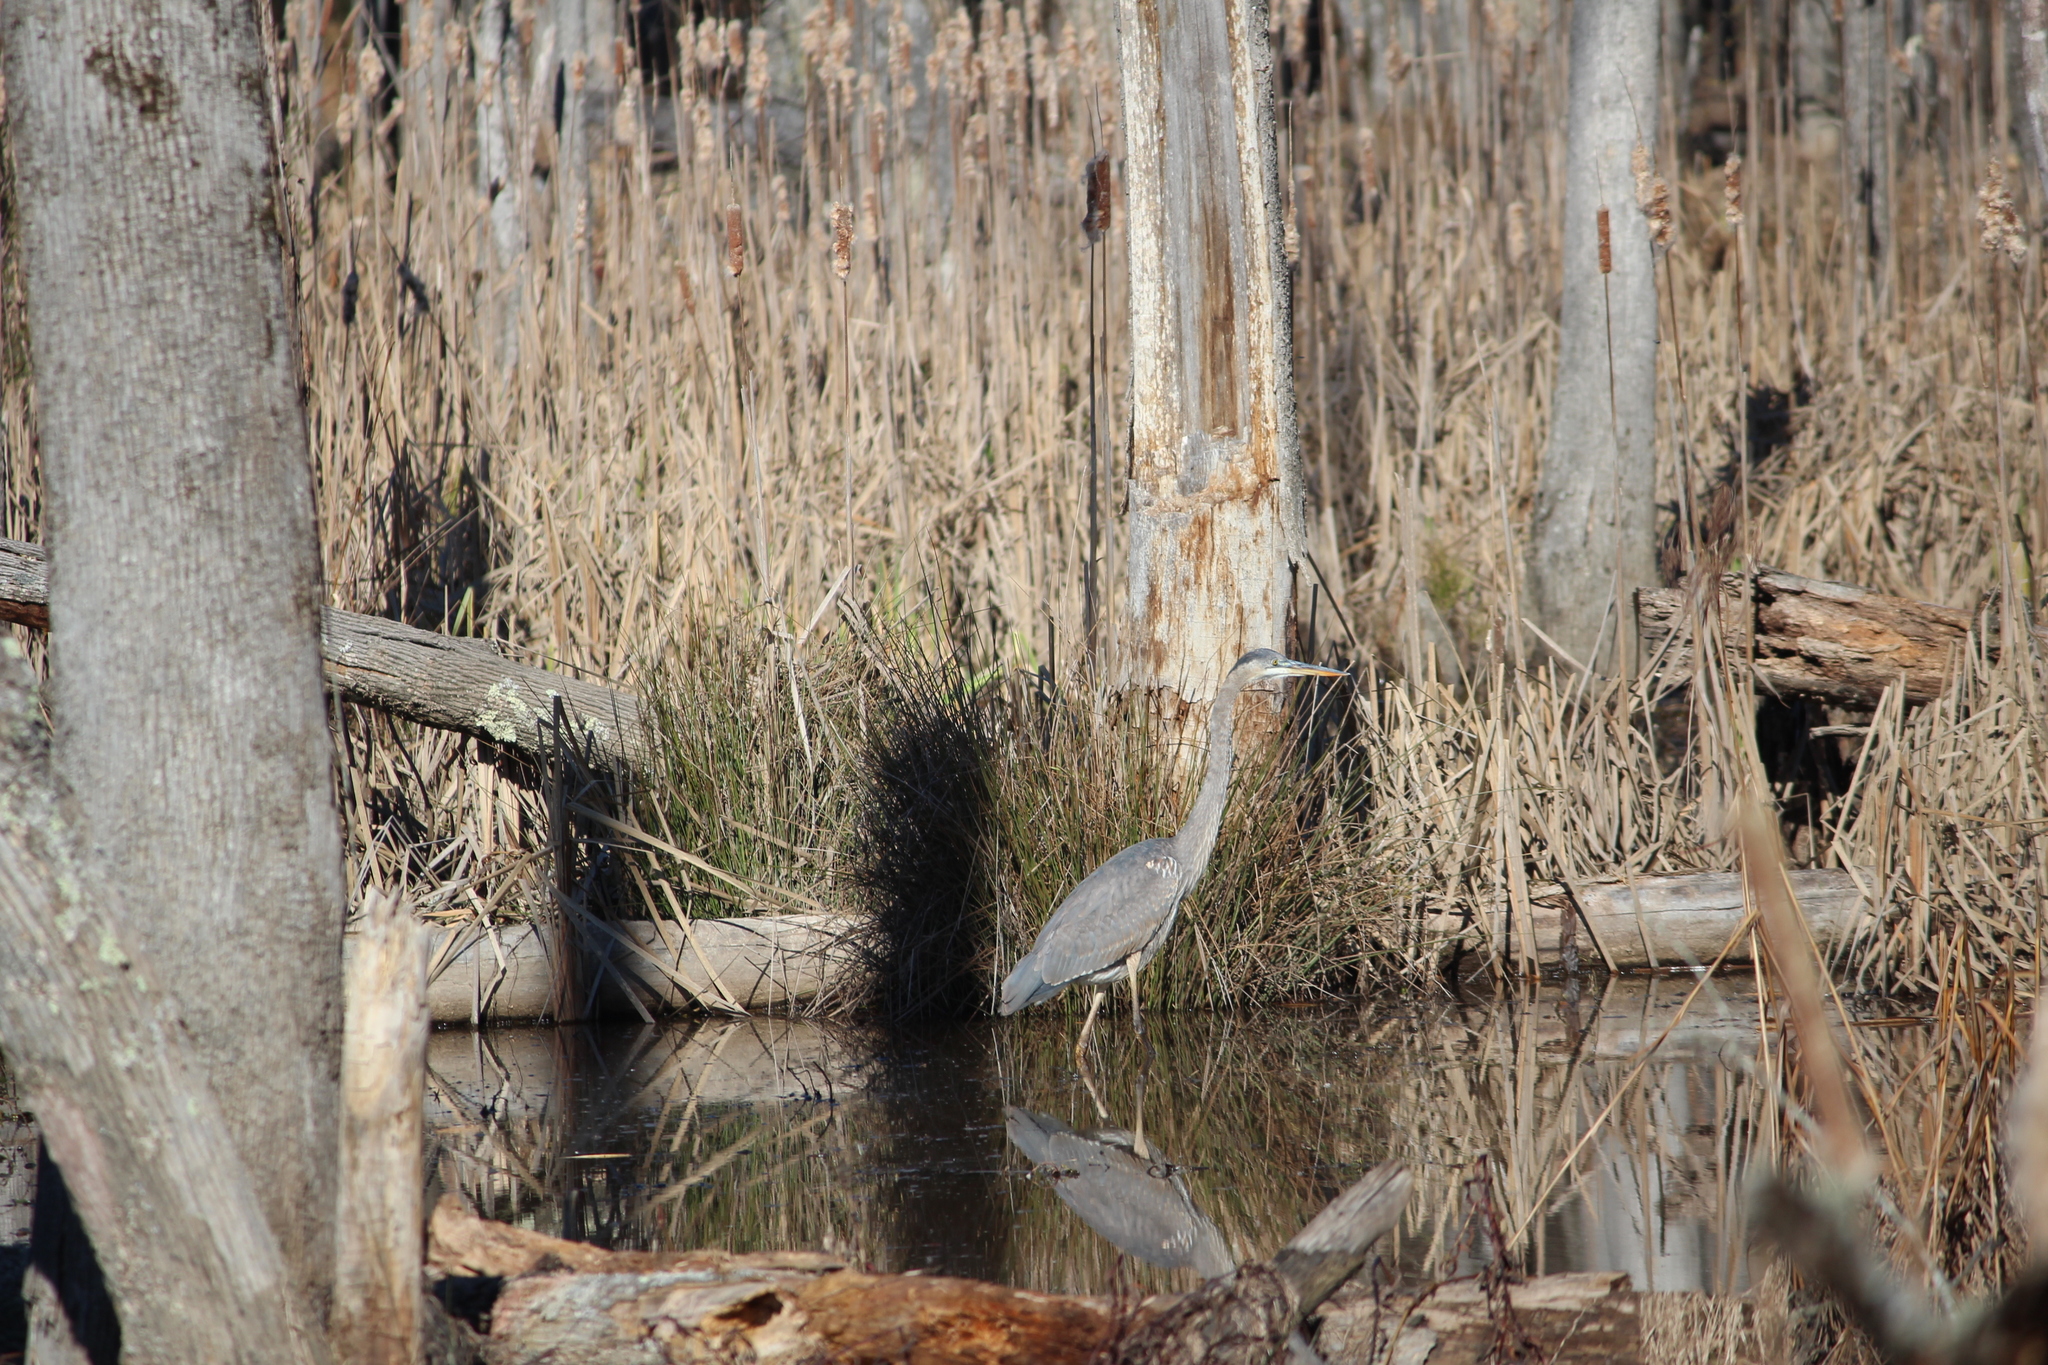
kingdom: Animalia
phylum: Chordata
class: Aves
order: Pelecaniformes
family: Ardeidae
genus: Ardea
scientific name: Ardea herodias
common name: Great blue heron
